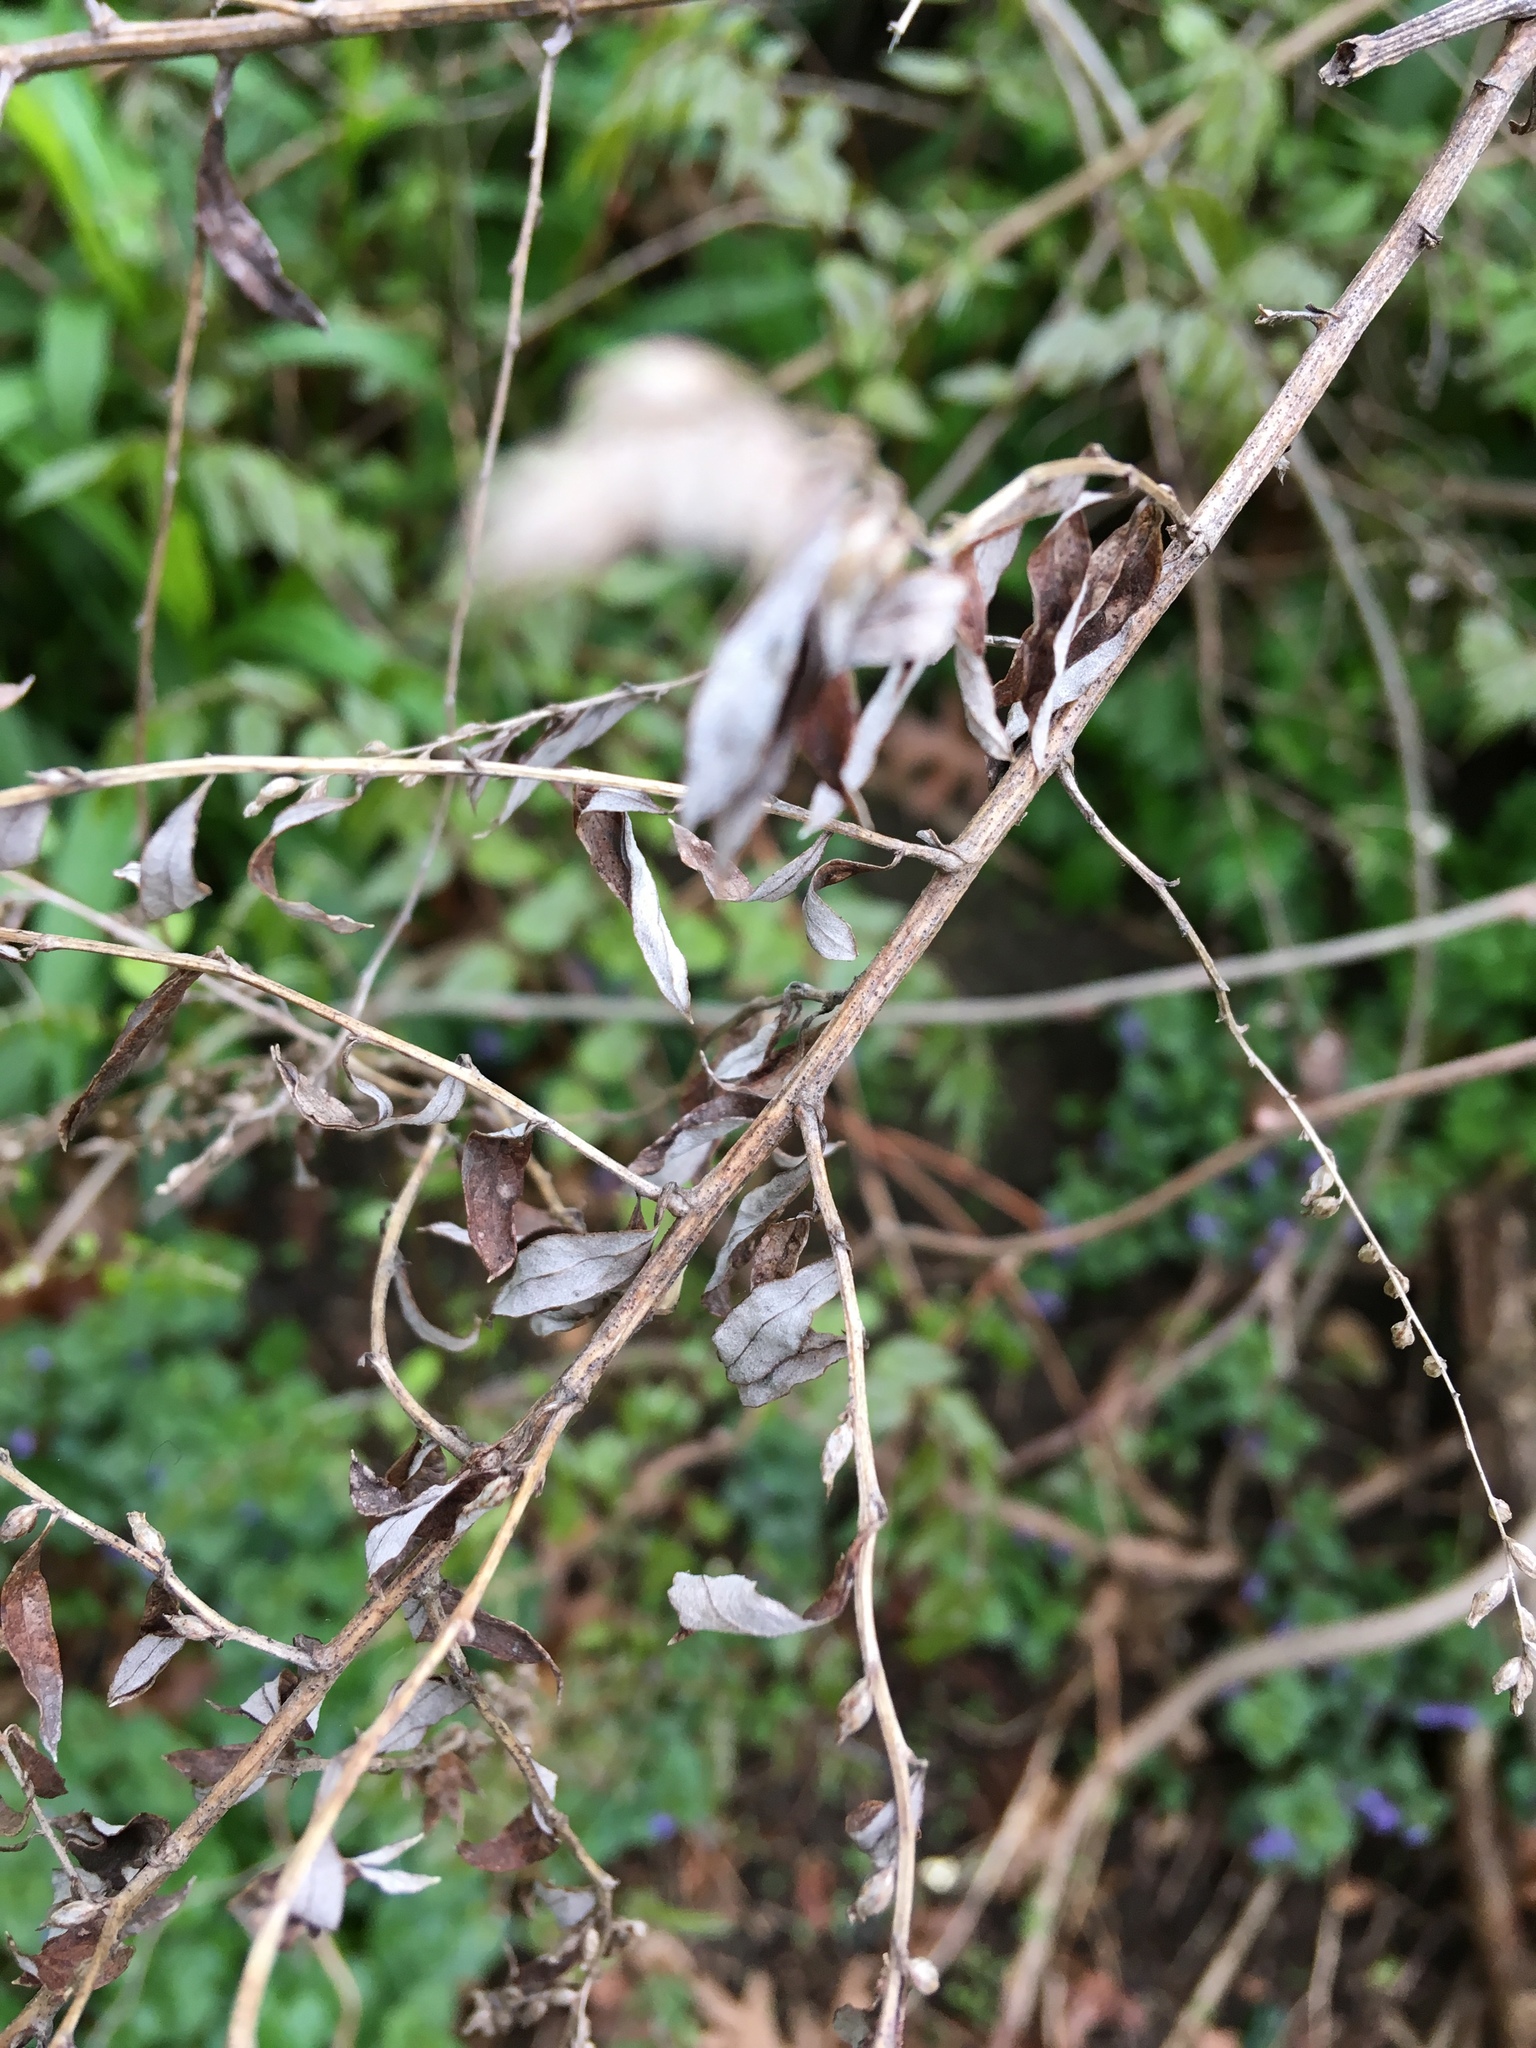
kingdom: Plantae
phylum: Tracheophyta
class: Magnoliopsida
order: Asterales
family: Asteraceae
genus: Artemisia
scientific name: Artemisia vulgaris
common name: Mugwort
